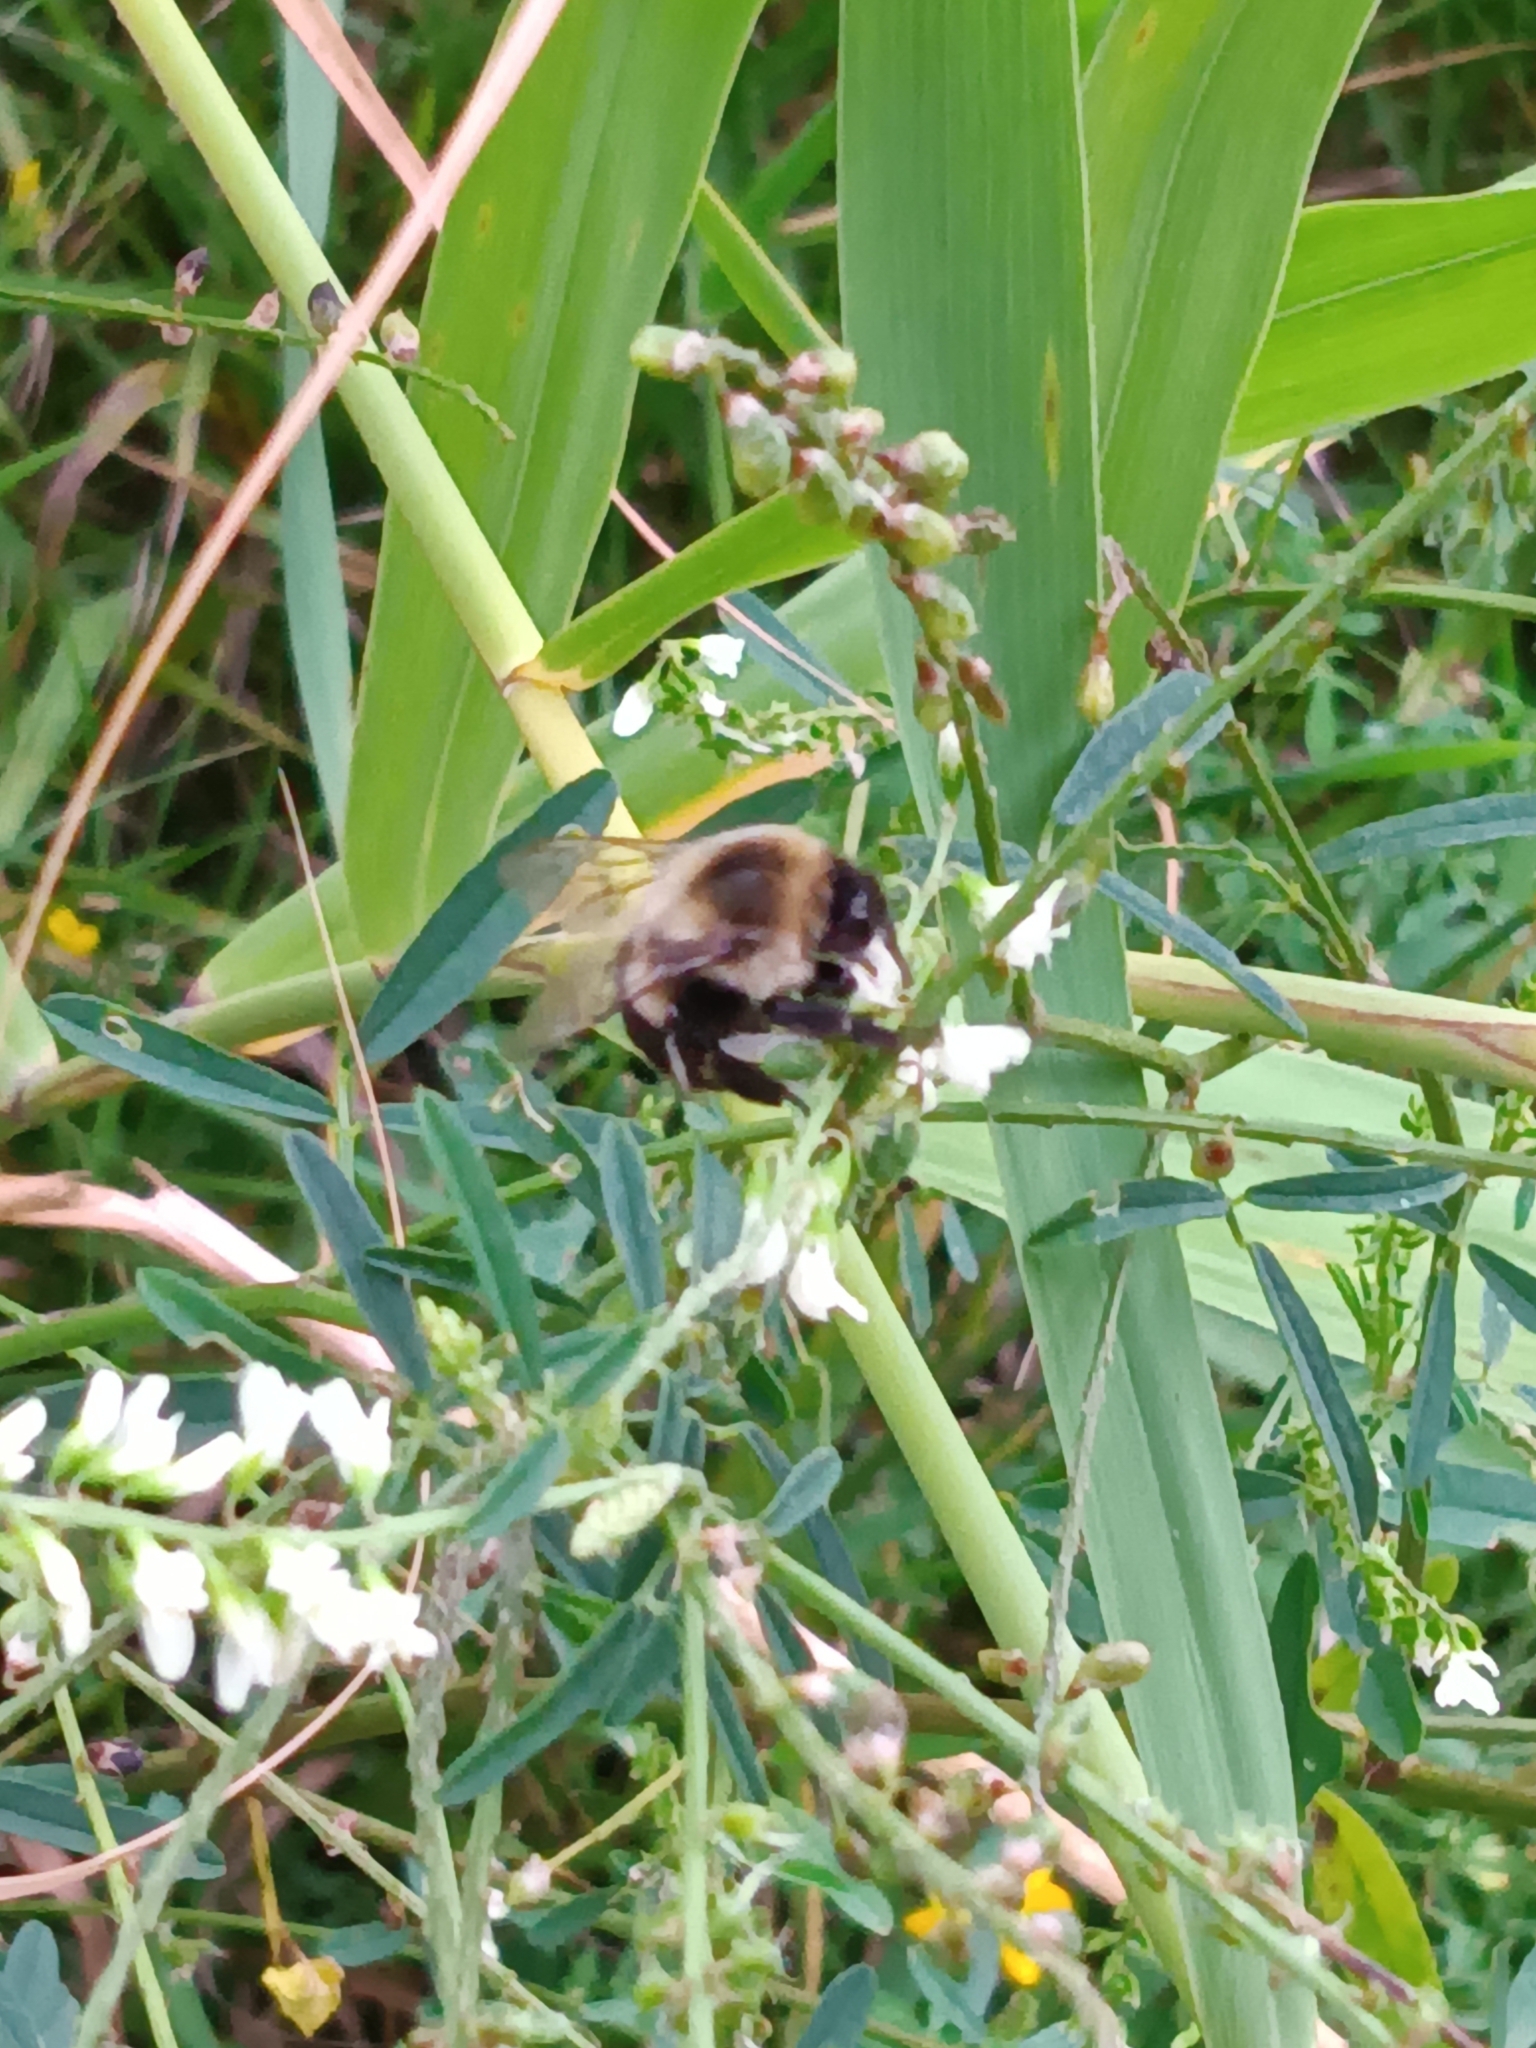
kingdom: Animalia
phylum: Arthropoda
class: Insecta
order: Hymenoptera
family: Apidae
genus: Bombus
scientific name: Bombus impatiens
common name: Common eastern bumble bee
